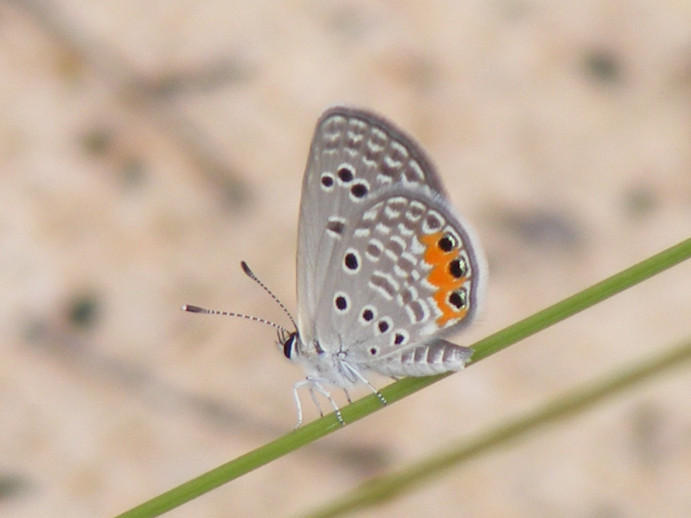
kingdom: Animalia
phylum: Arthropoda
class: Insecta
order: Lepidoptera
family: Lycaenidae
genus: Freyeria
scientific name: Freyeria trochylus
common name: Grass jewel
